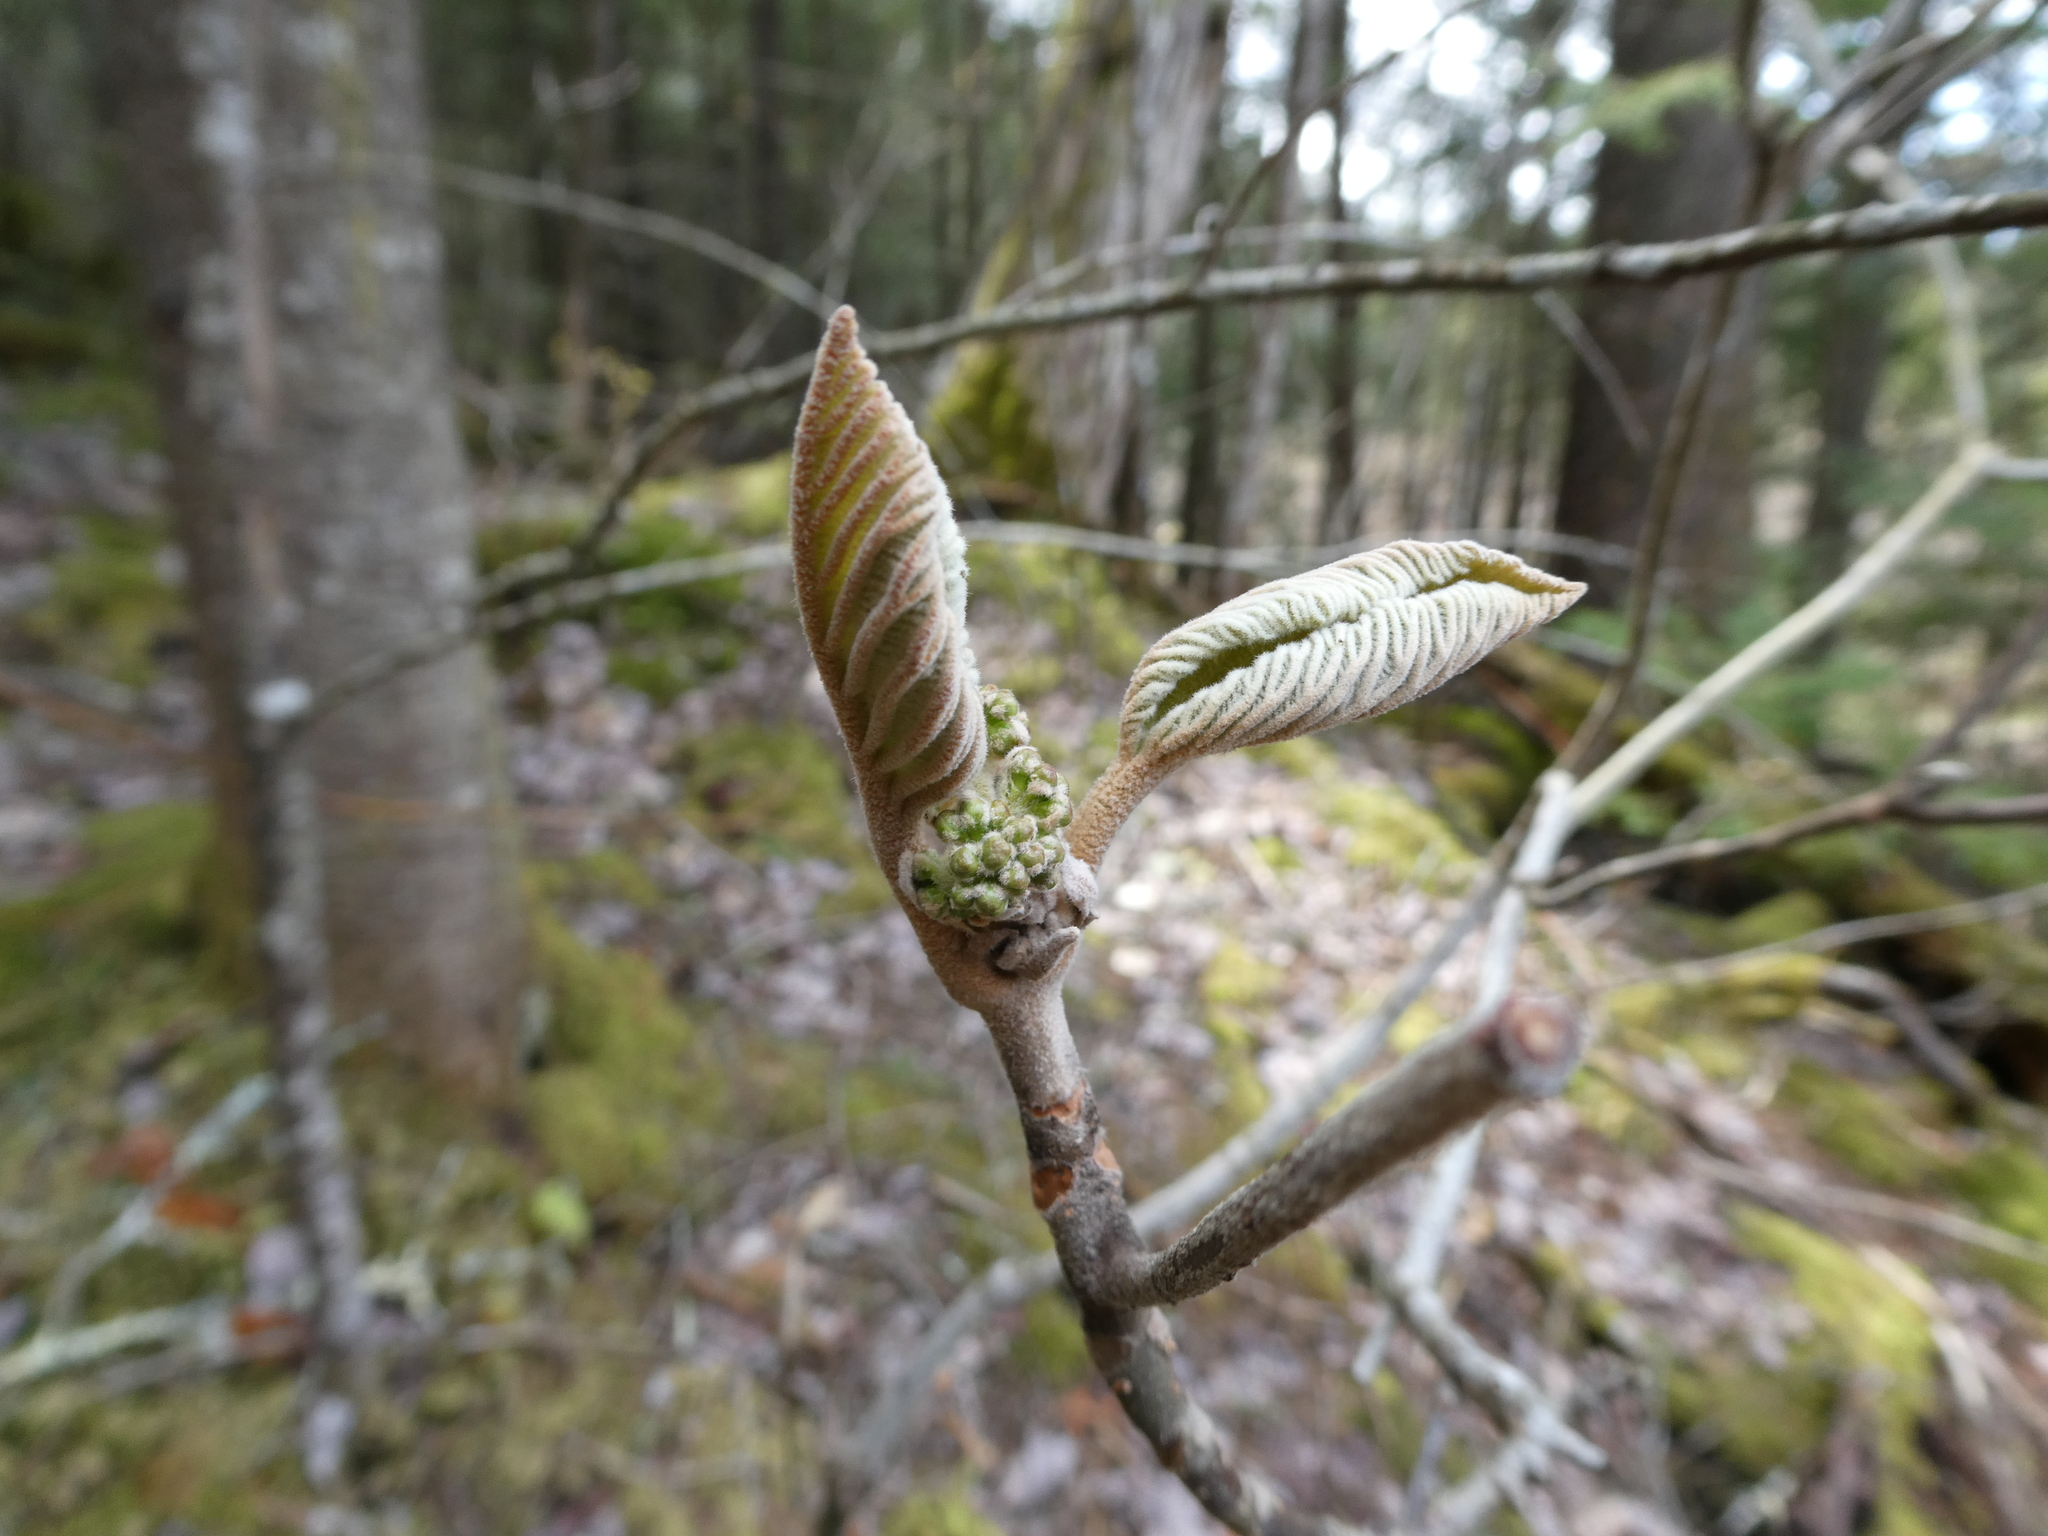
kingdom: Plantae
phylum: Tracheophyta
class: Magnoliopsida
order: Dipsacales
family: Viburnaceae
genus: Viburnum
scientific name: Viburnum lantanoides
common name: Hobblebush
